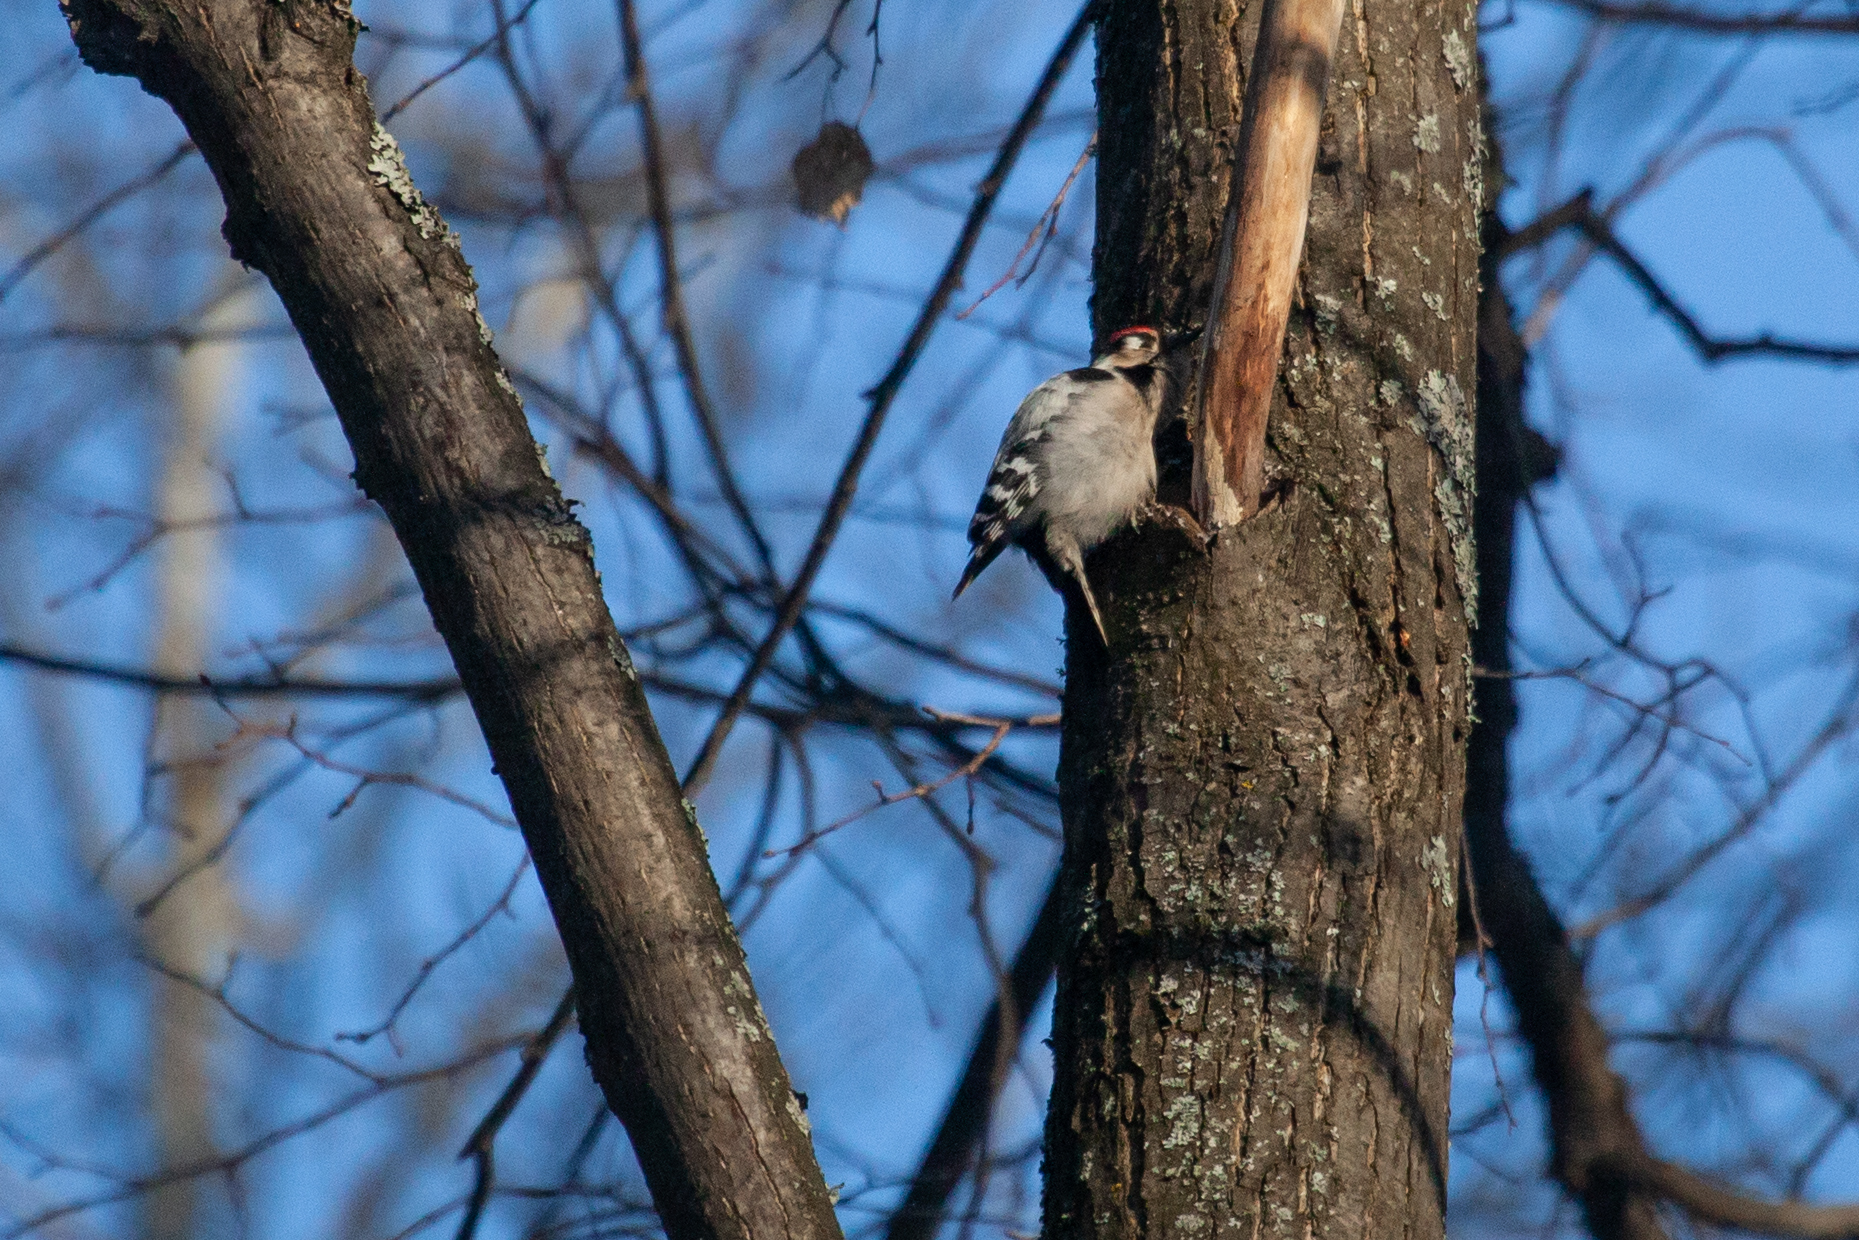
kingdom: Animalia
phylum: Chordata
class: Aves
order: Piciformes
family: Picidae
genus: Dryobates
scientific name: Dryobates minor
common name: Lesser spotted woodpecker
